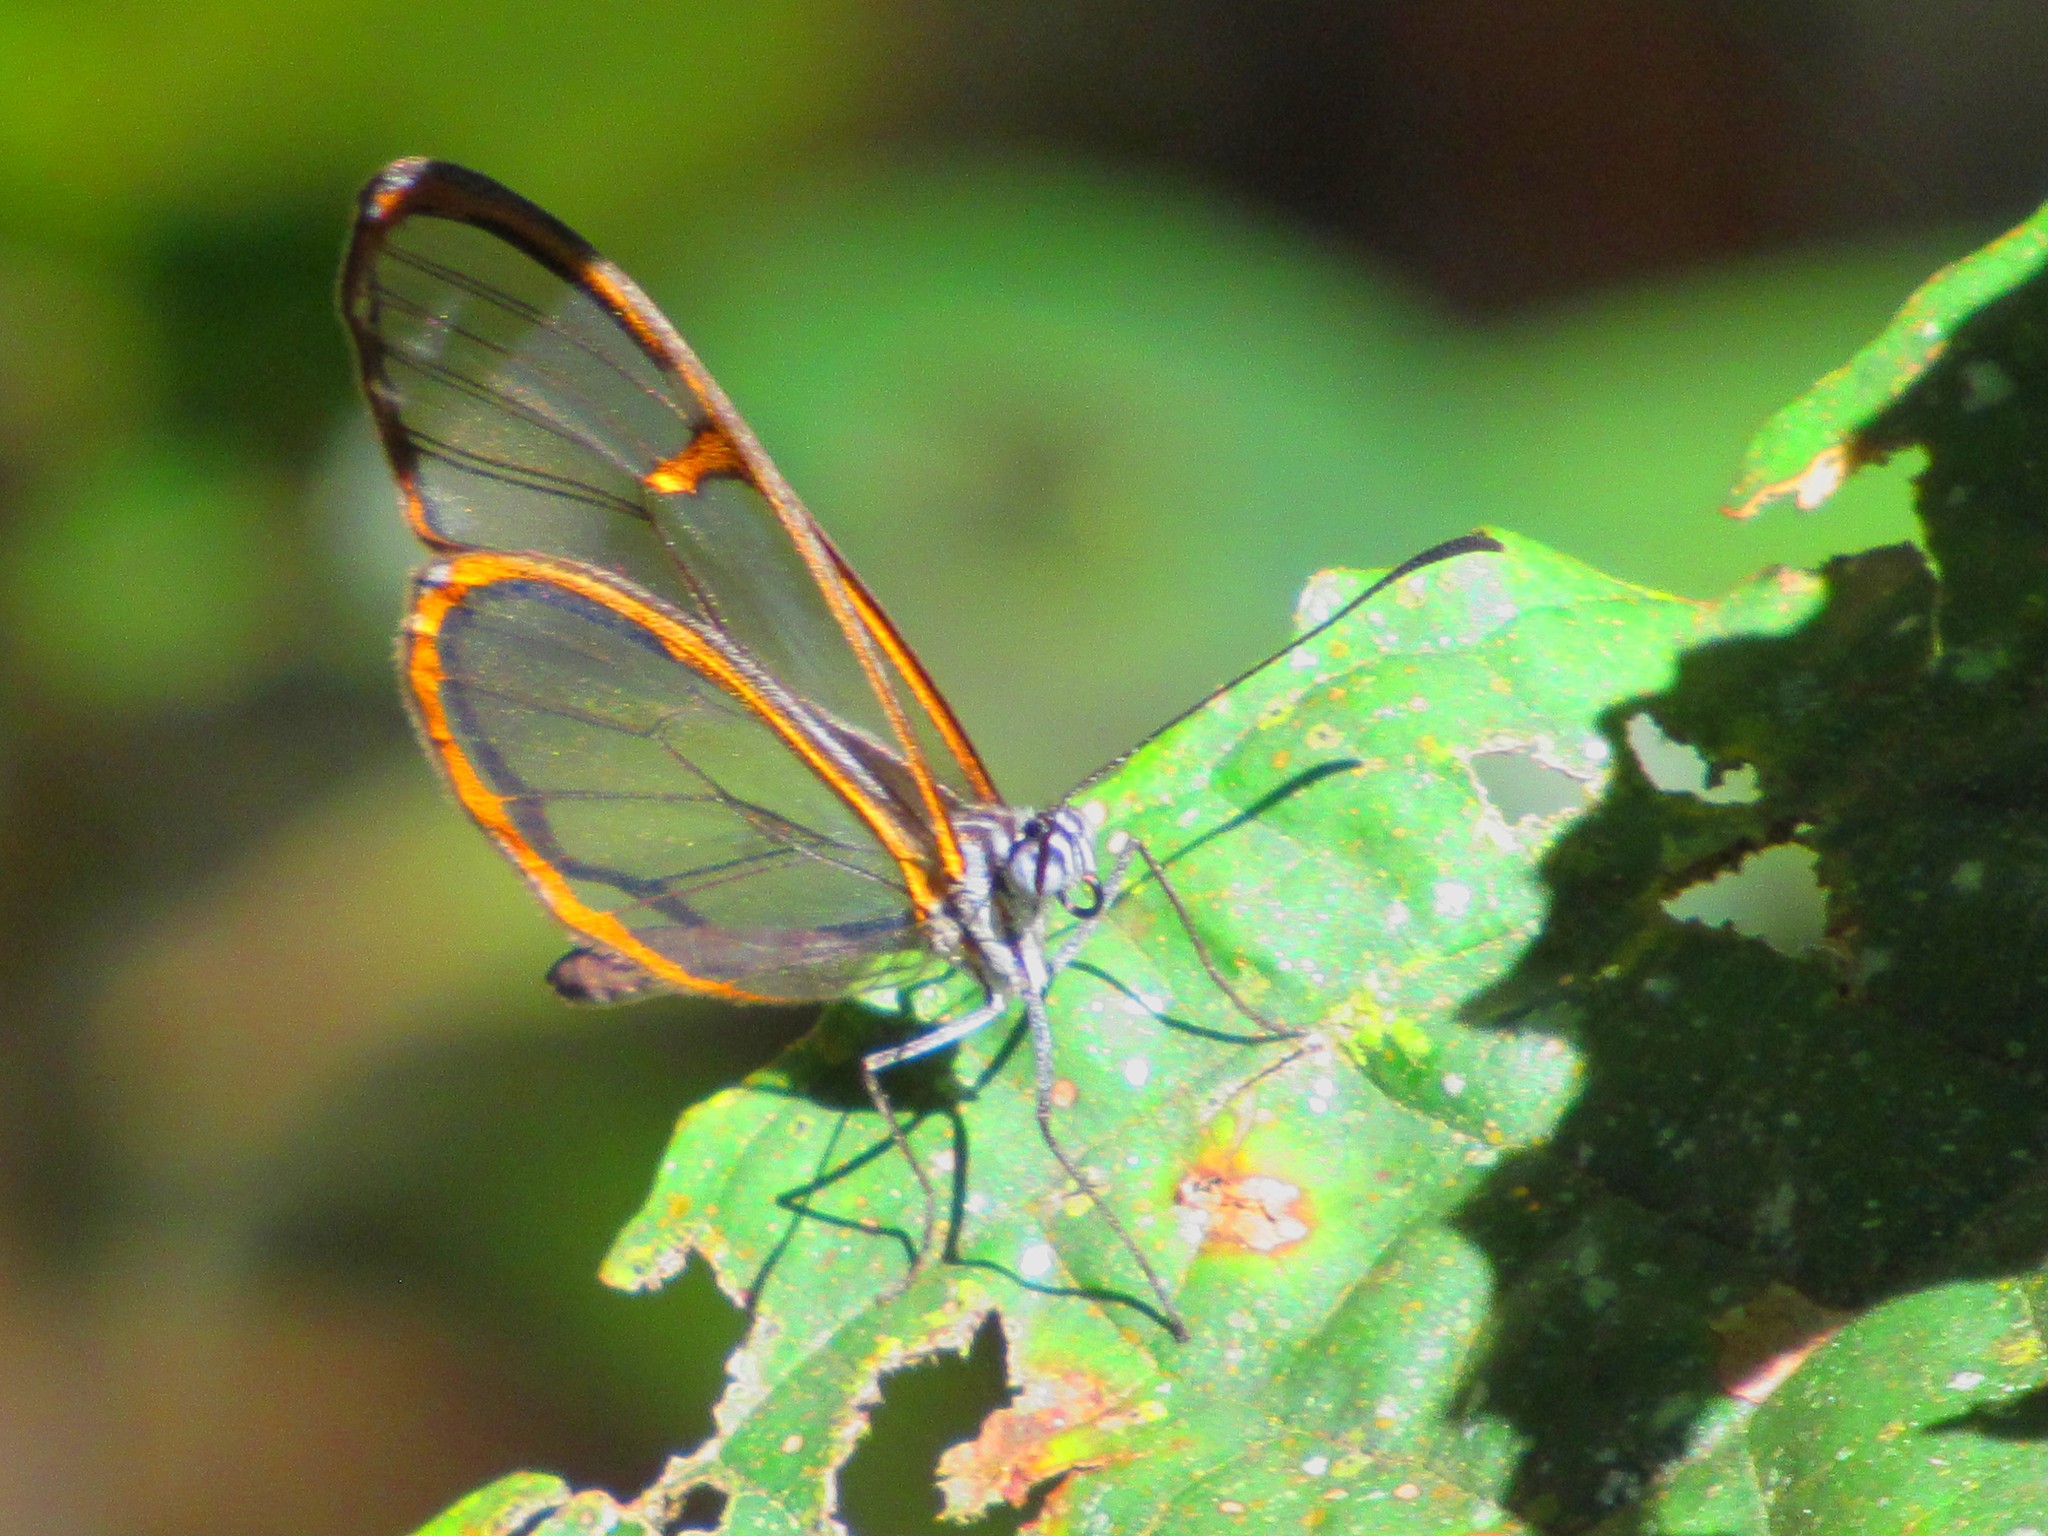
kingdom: Animalia
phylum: Arthropoda
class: Insecta
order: Lepidoptera
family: Nymphalidae
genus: Episcada
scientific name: Episcada hymenaea
